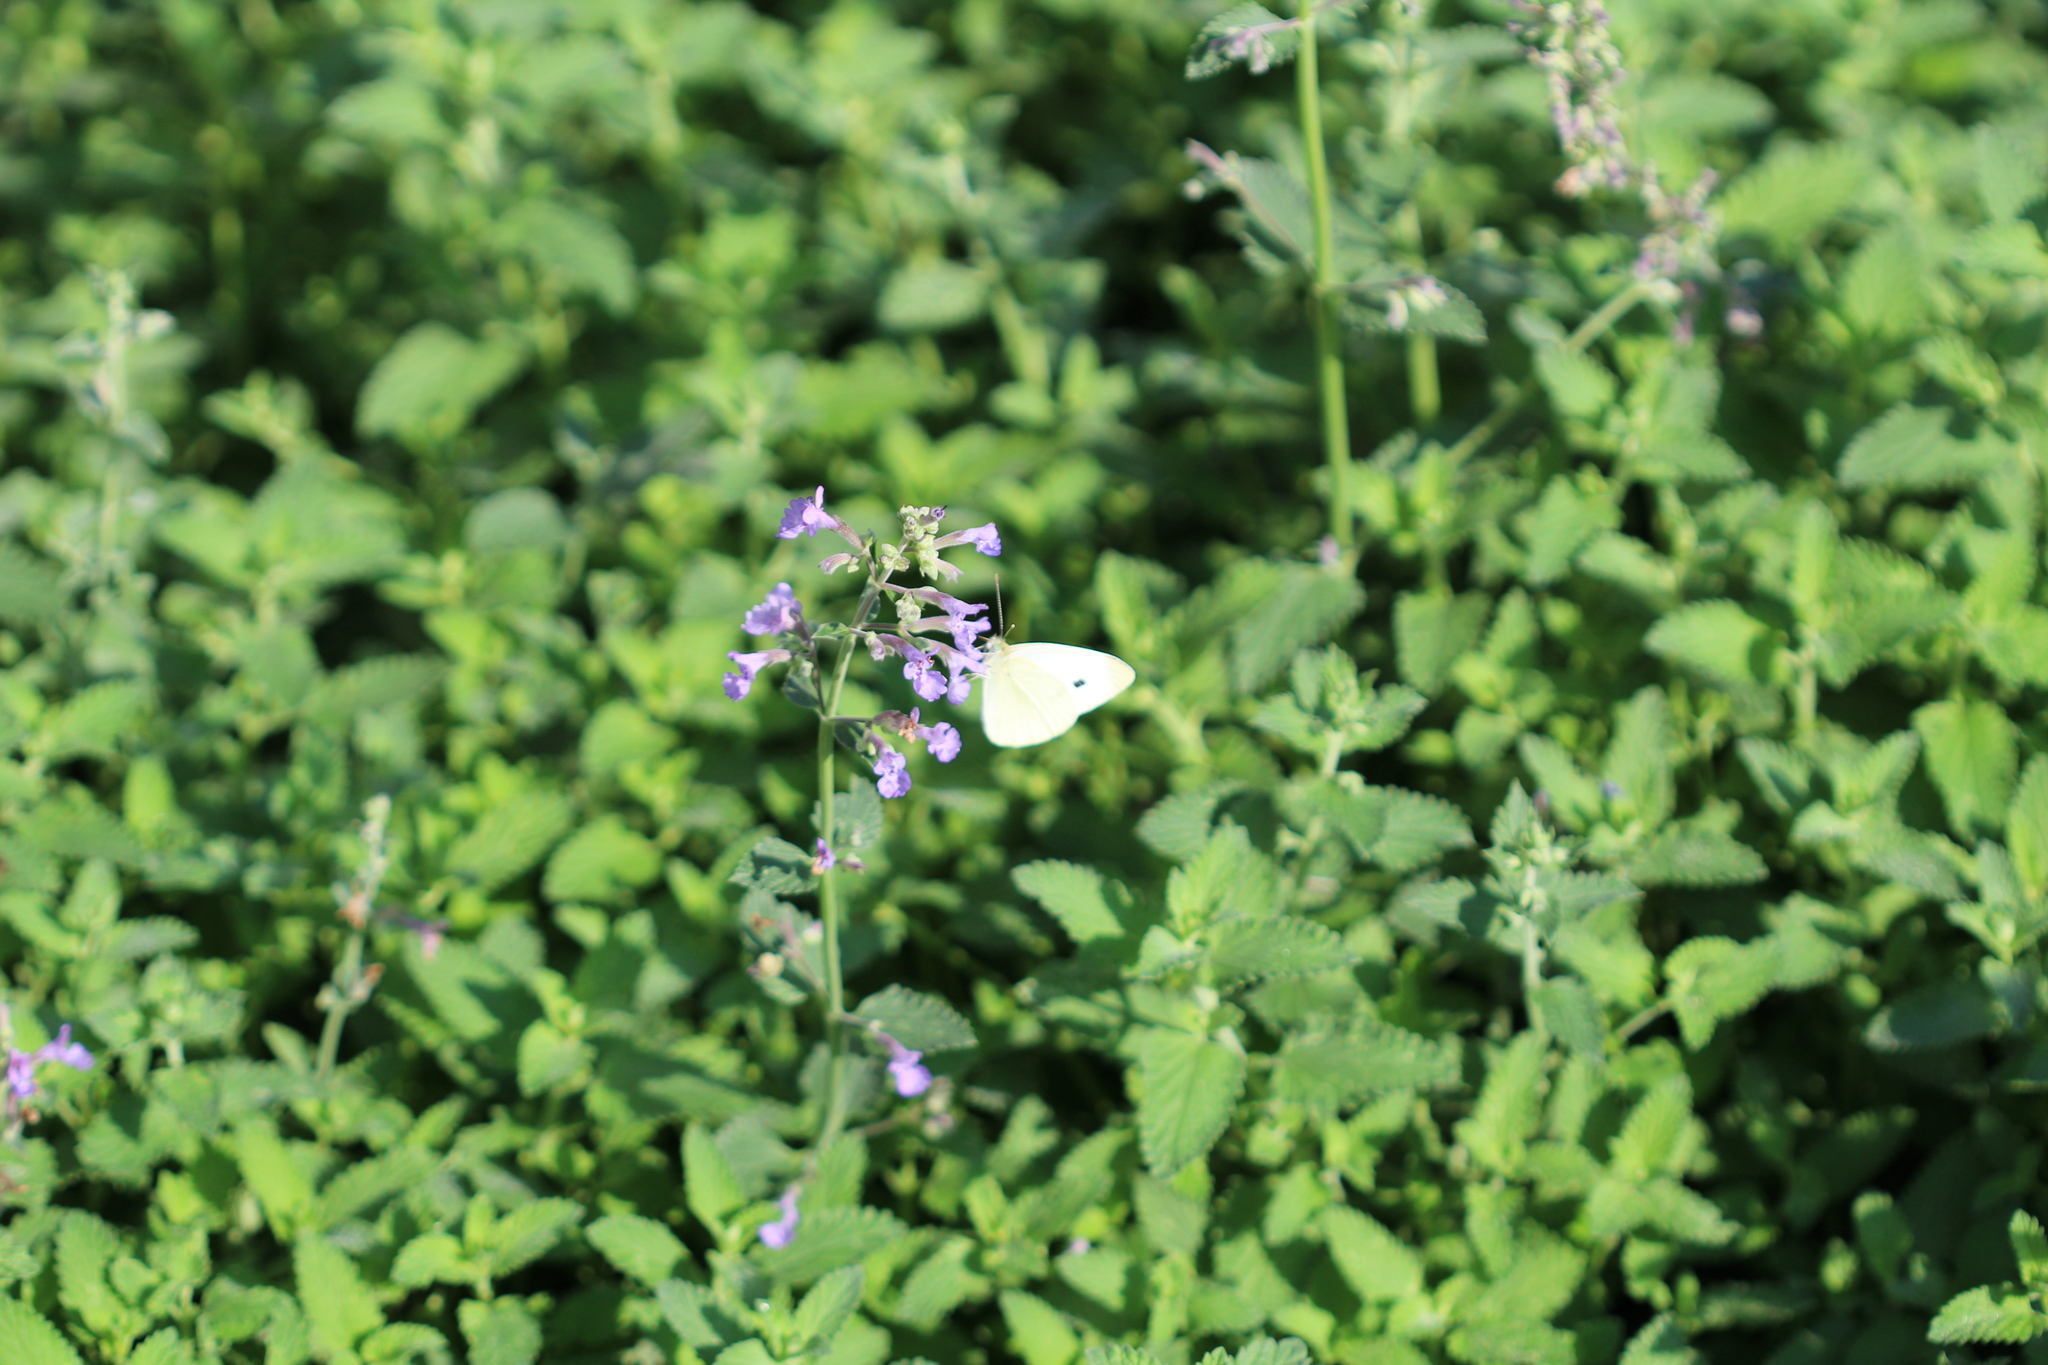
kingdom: Animalia
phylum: Arthropoda
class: Insecta
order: Lepidoptera
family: Pieridae
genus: Pieris
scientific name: Pieris rapae
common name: Small white
